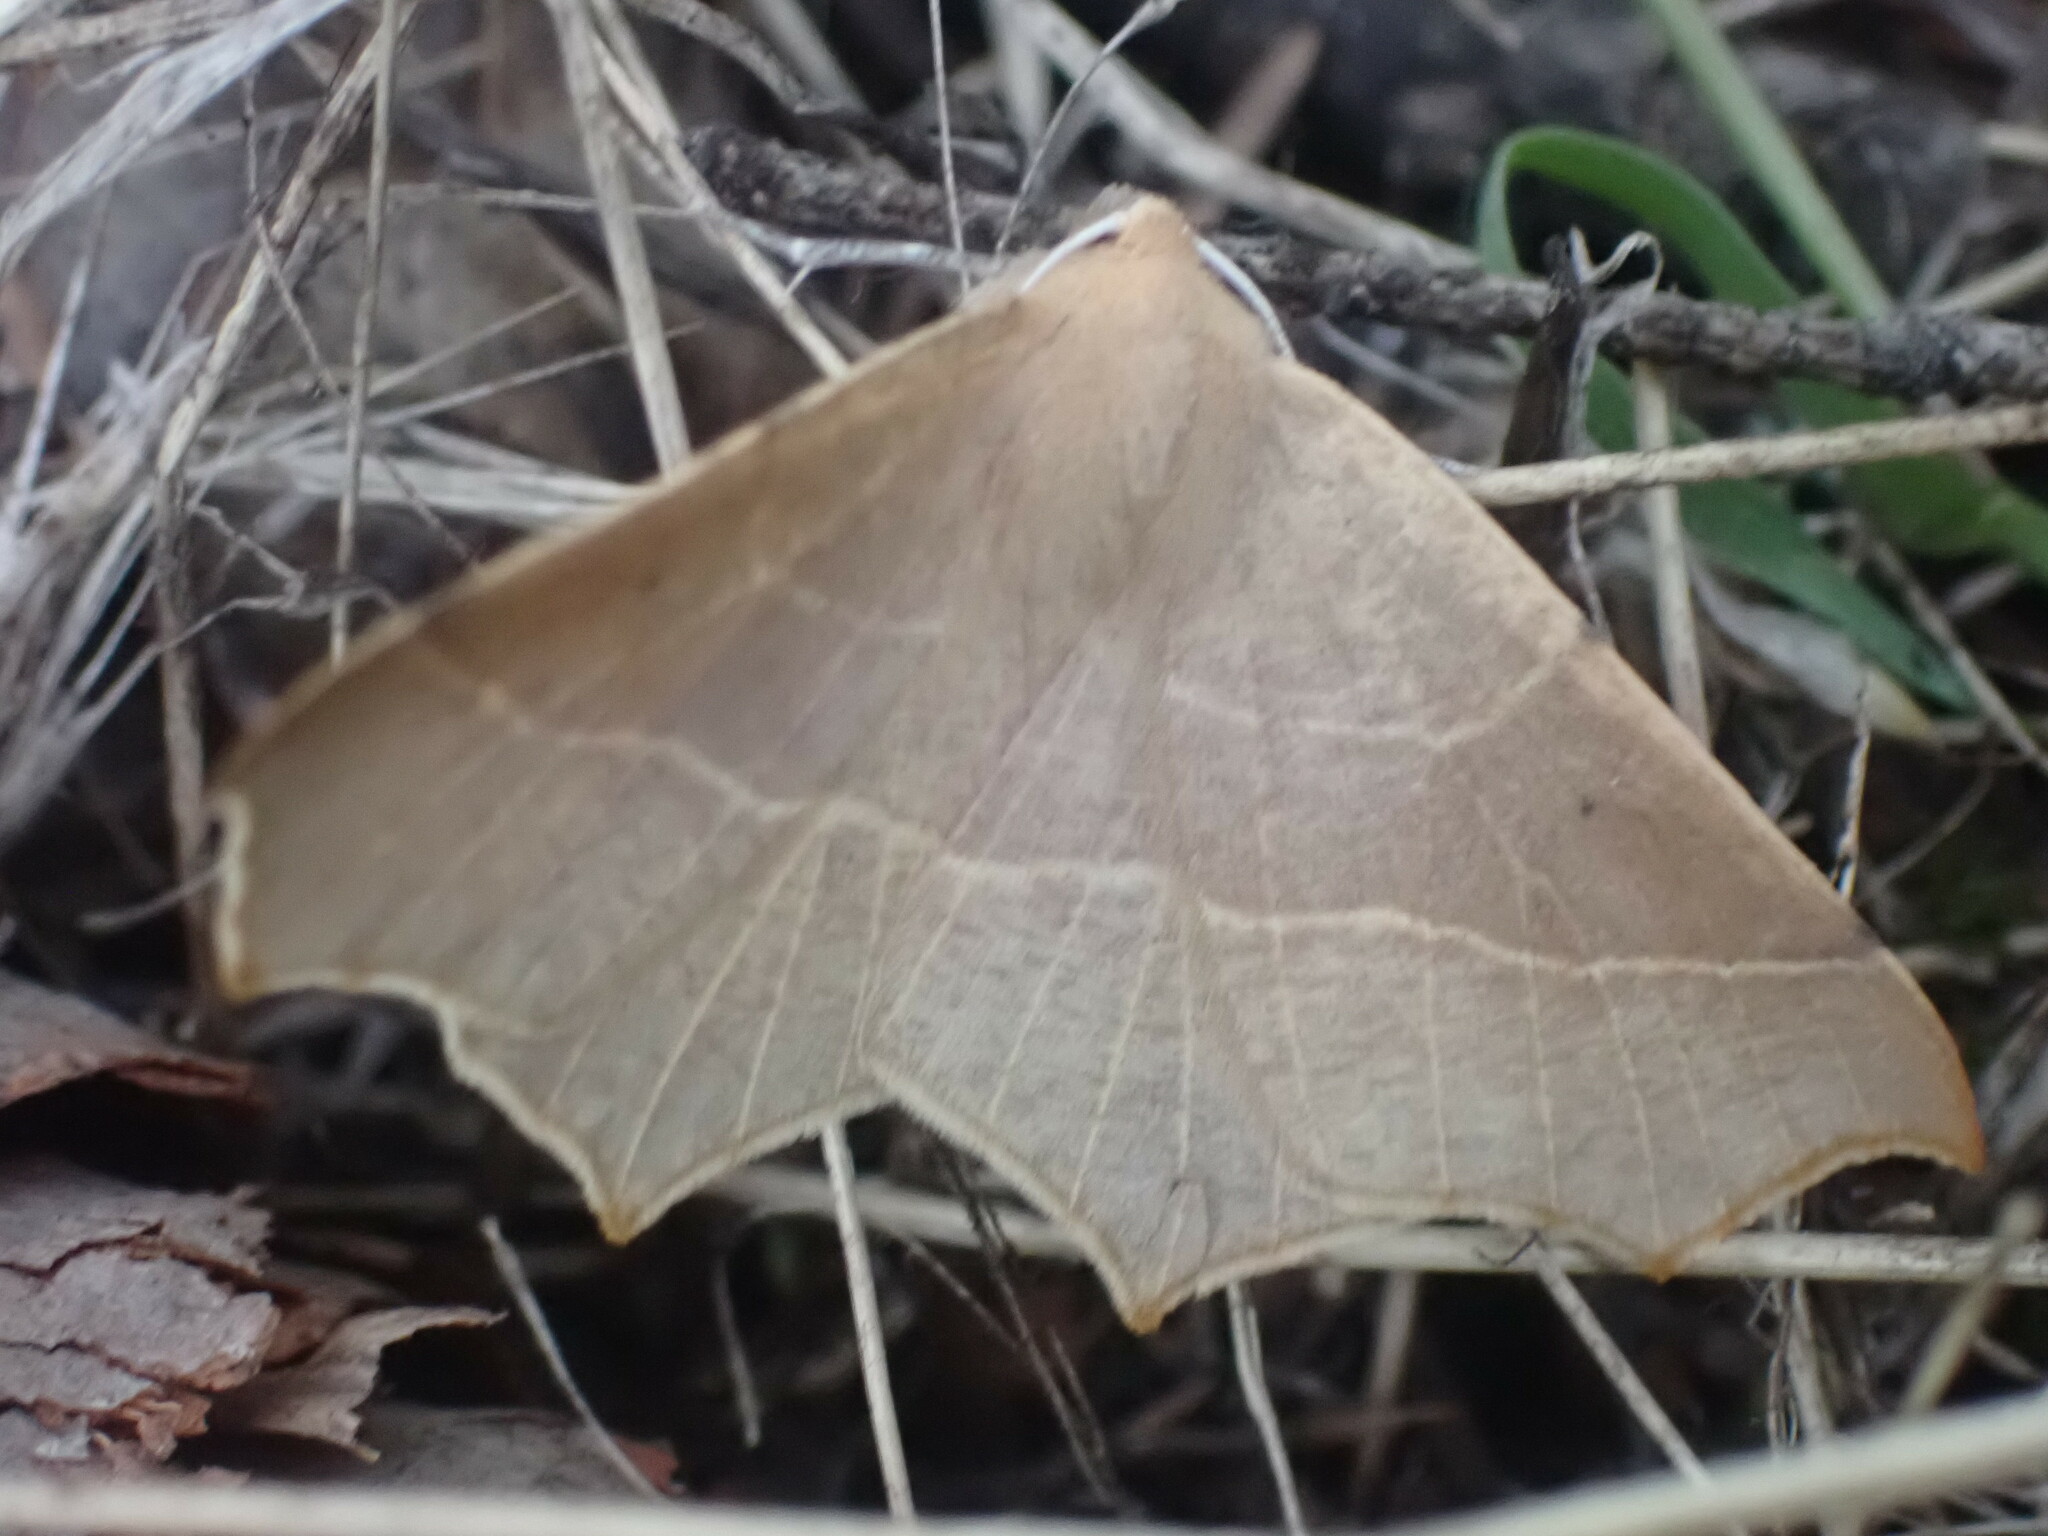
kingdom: Animalia
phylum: Arthropoda
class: Insecta
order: Lepidoptera
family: Geometridae
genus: Tetracis
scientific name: Tetracis cervinaria
